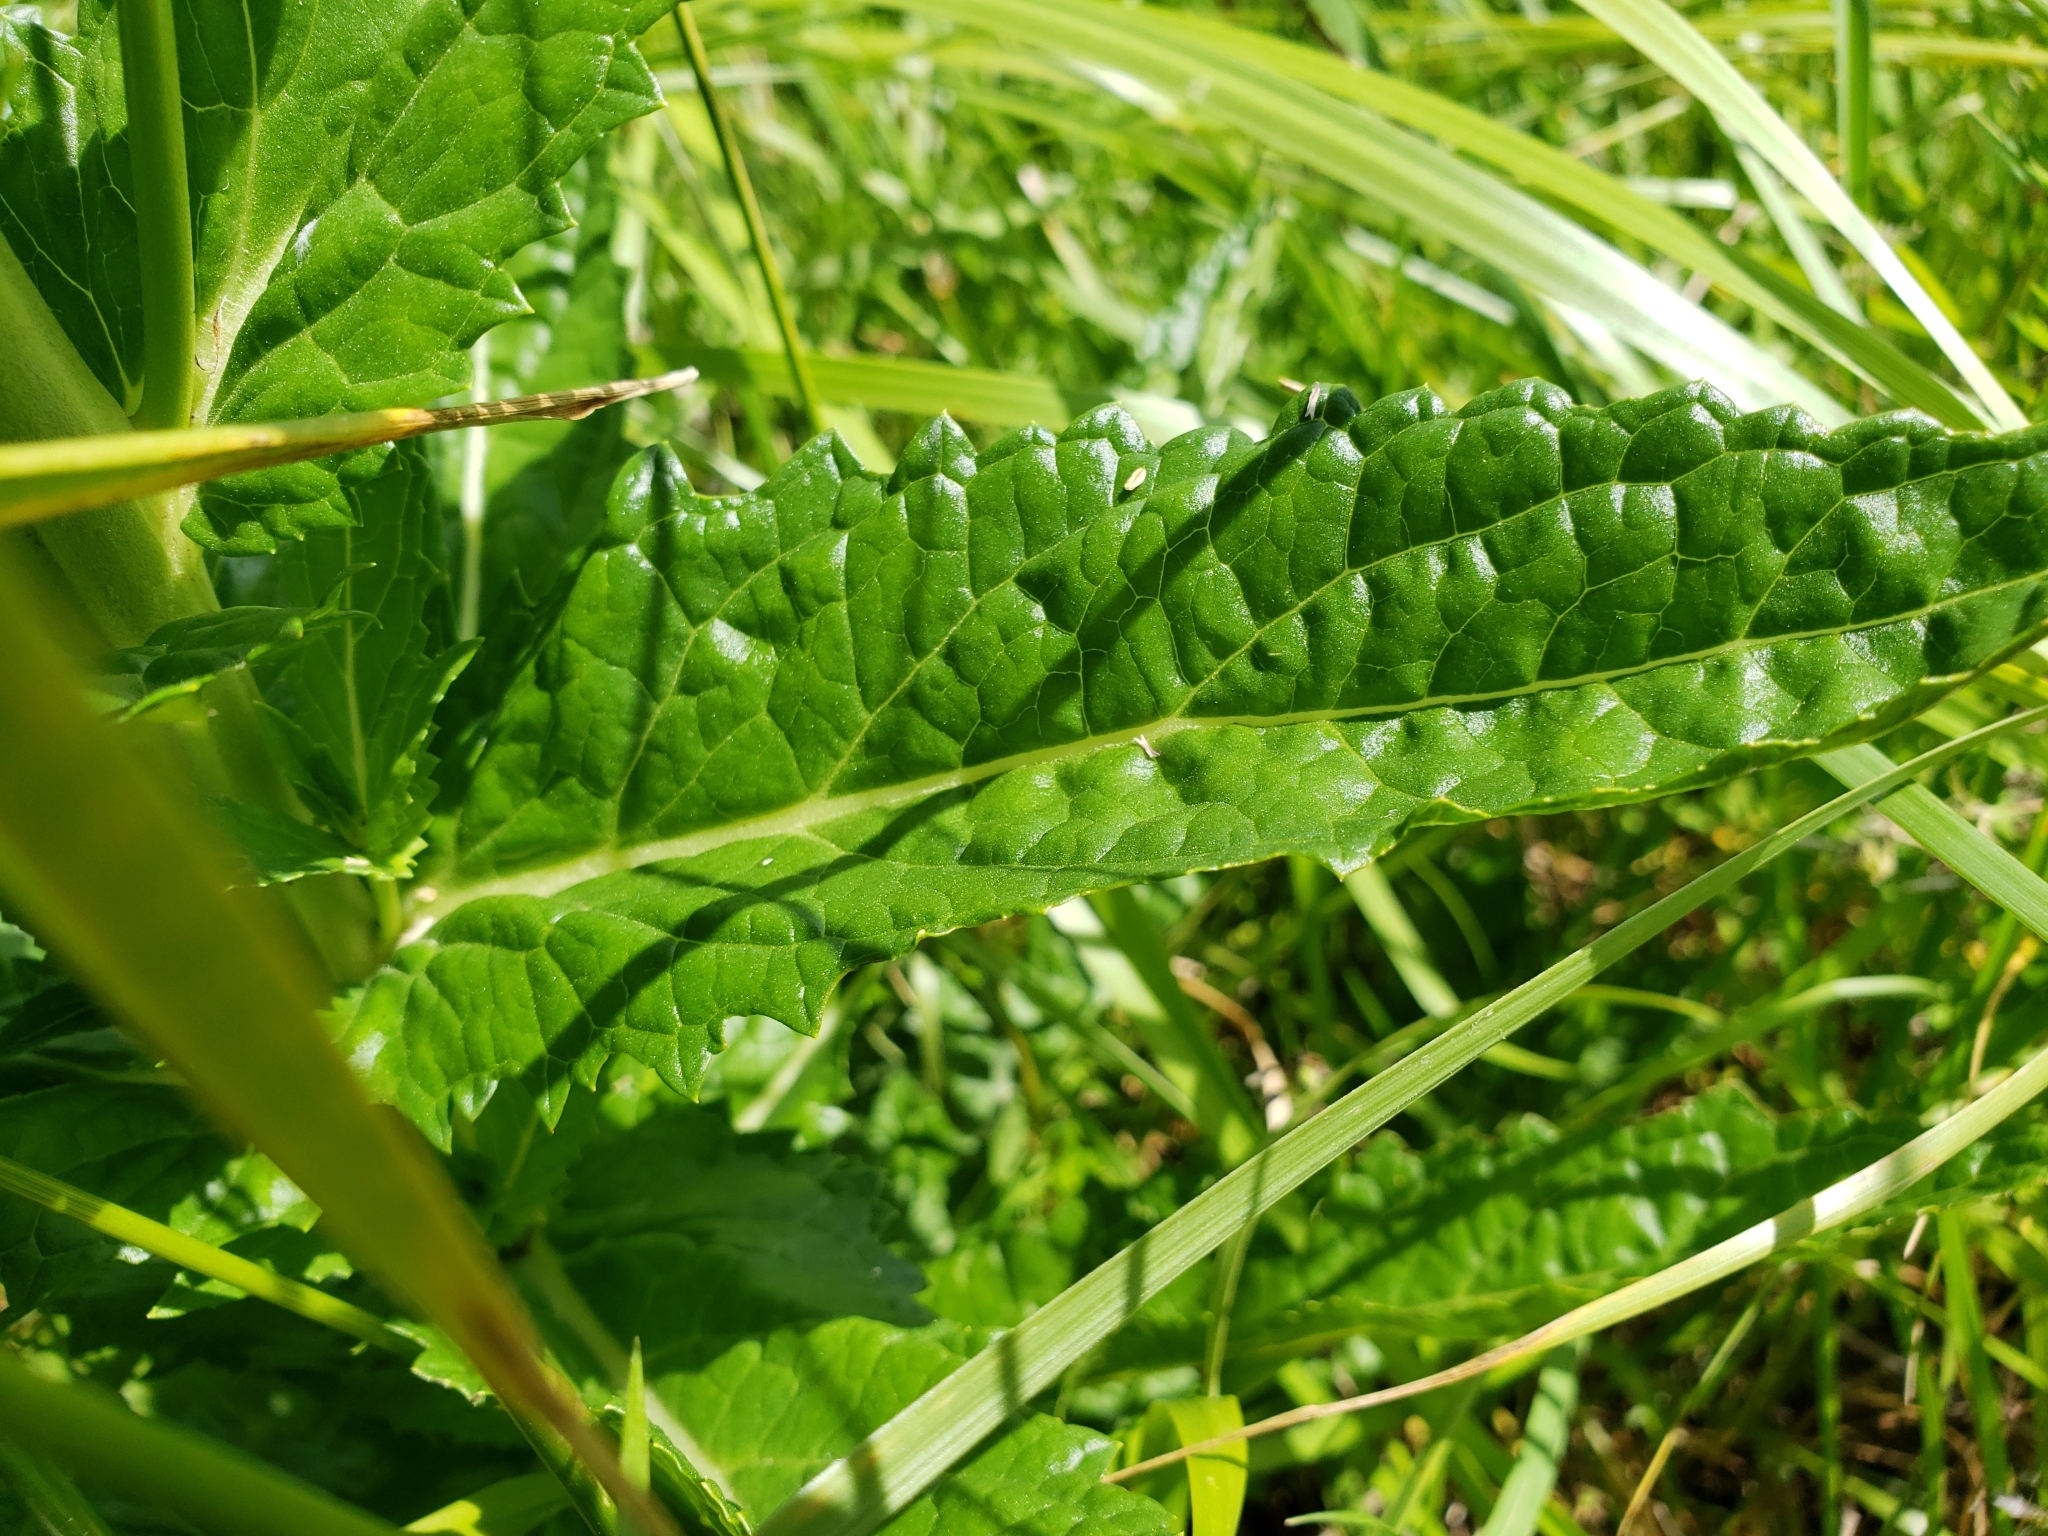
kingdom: Plantae
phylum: Tracheophyta
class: Magnoliopsida
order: Lamiales
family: Scrophulariaceae
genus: Verbascum
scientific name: Verbascum blattaria
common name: Moth mullein
